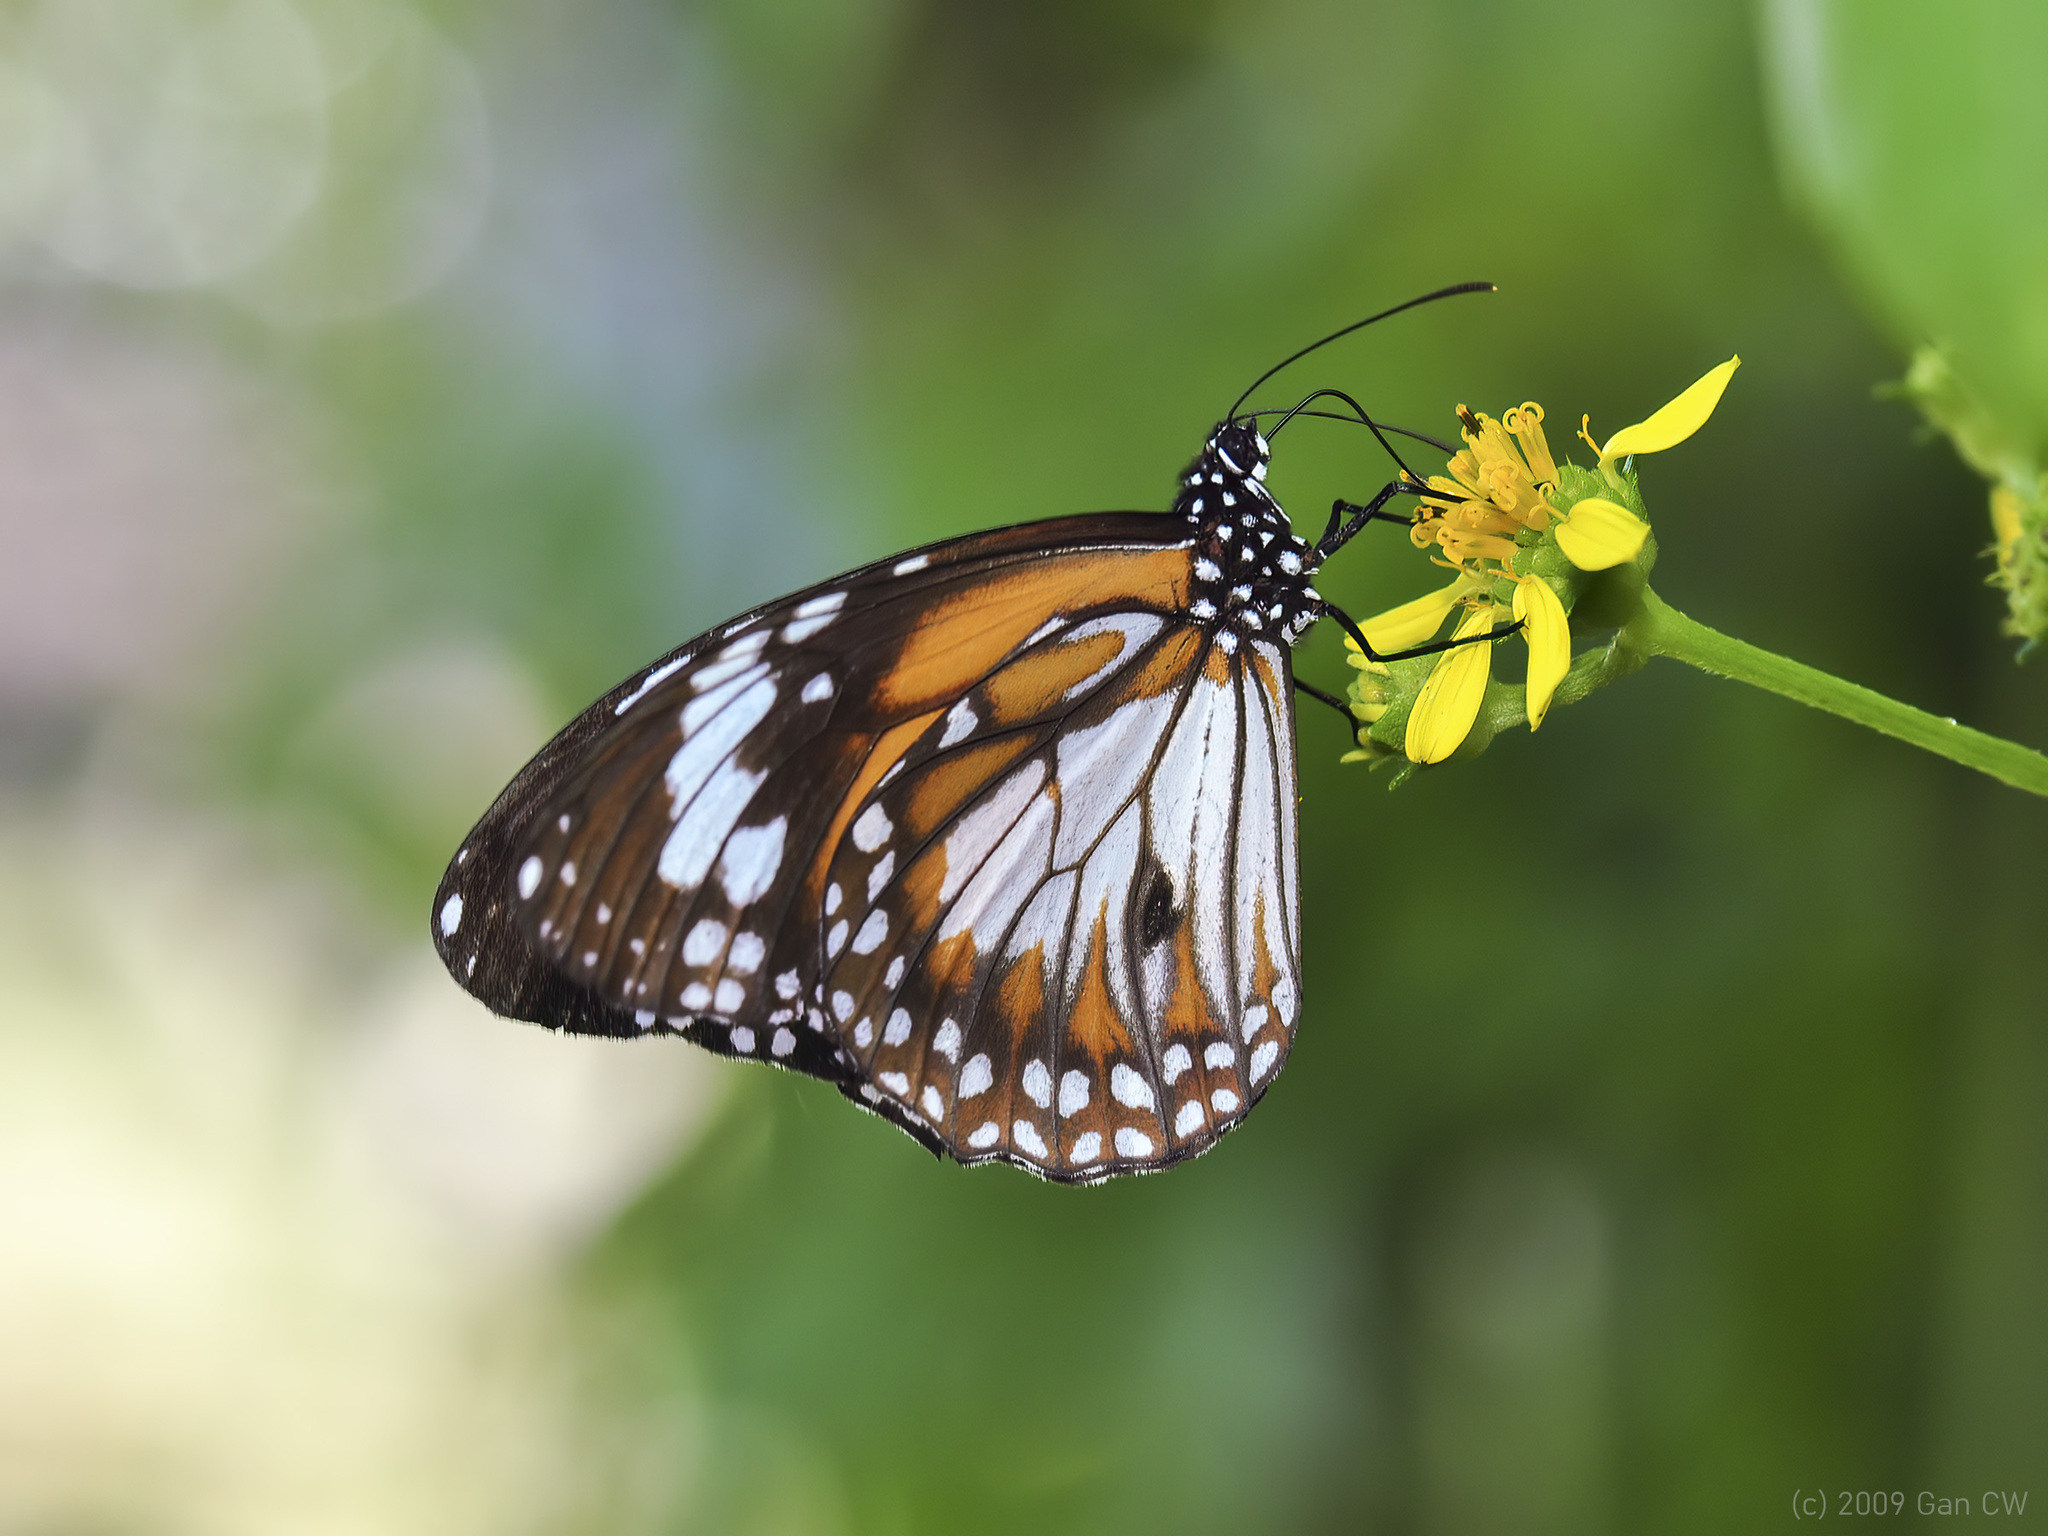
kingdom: Animalia
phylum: Arthropoda
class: Insecta
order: Lepidoptera
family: Nymphalidae
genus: Danaus
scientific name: Danaus affinis
